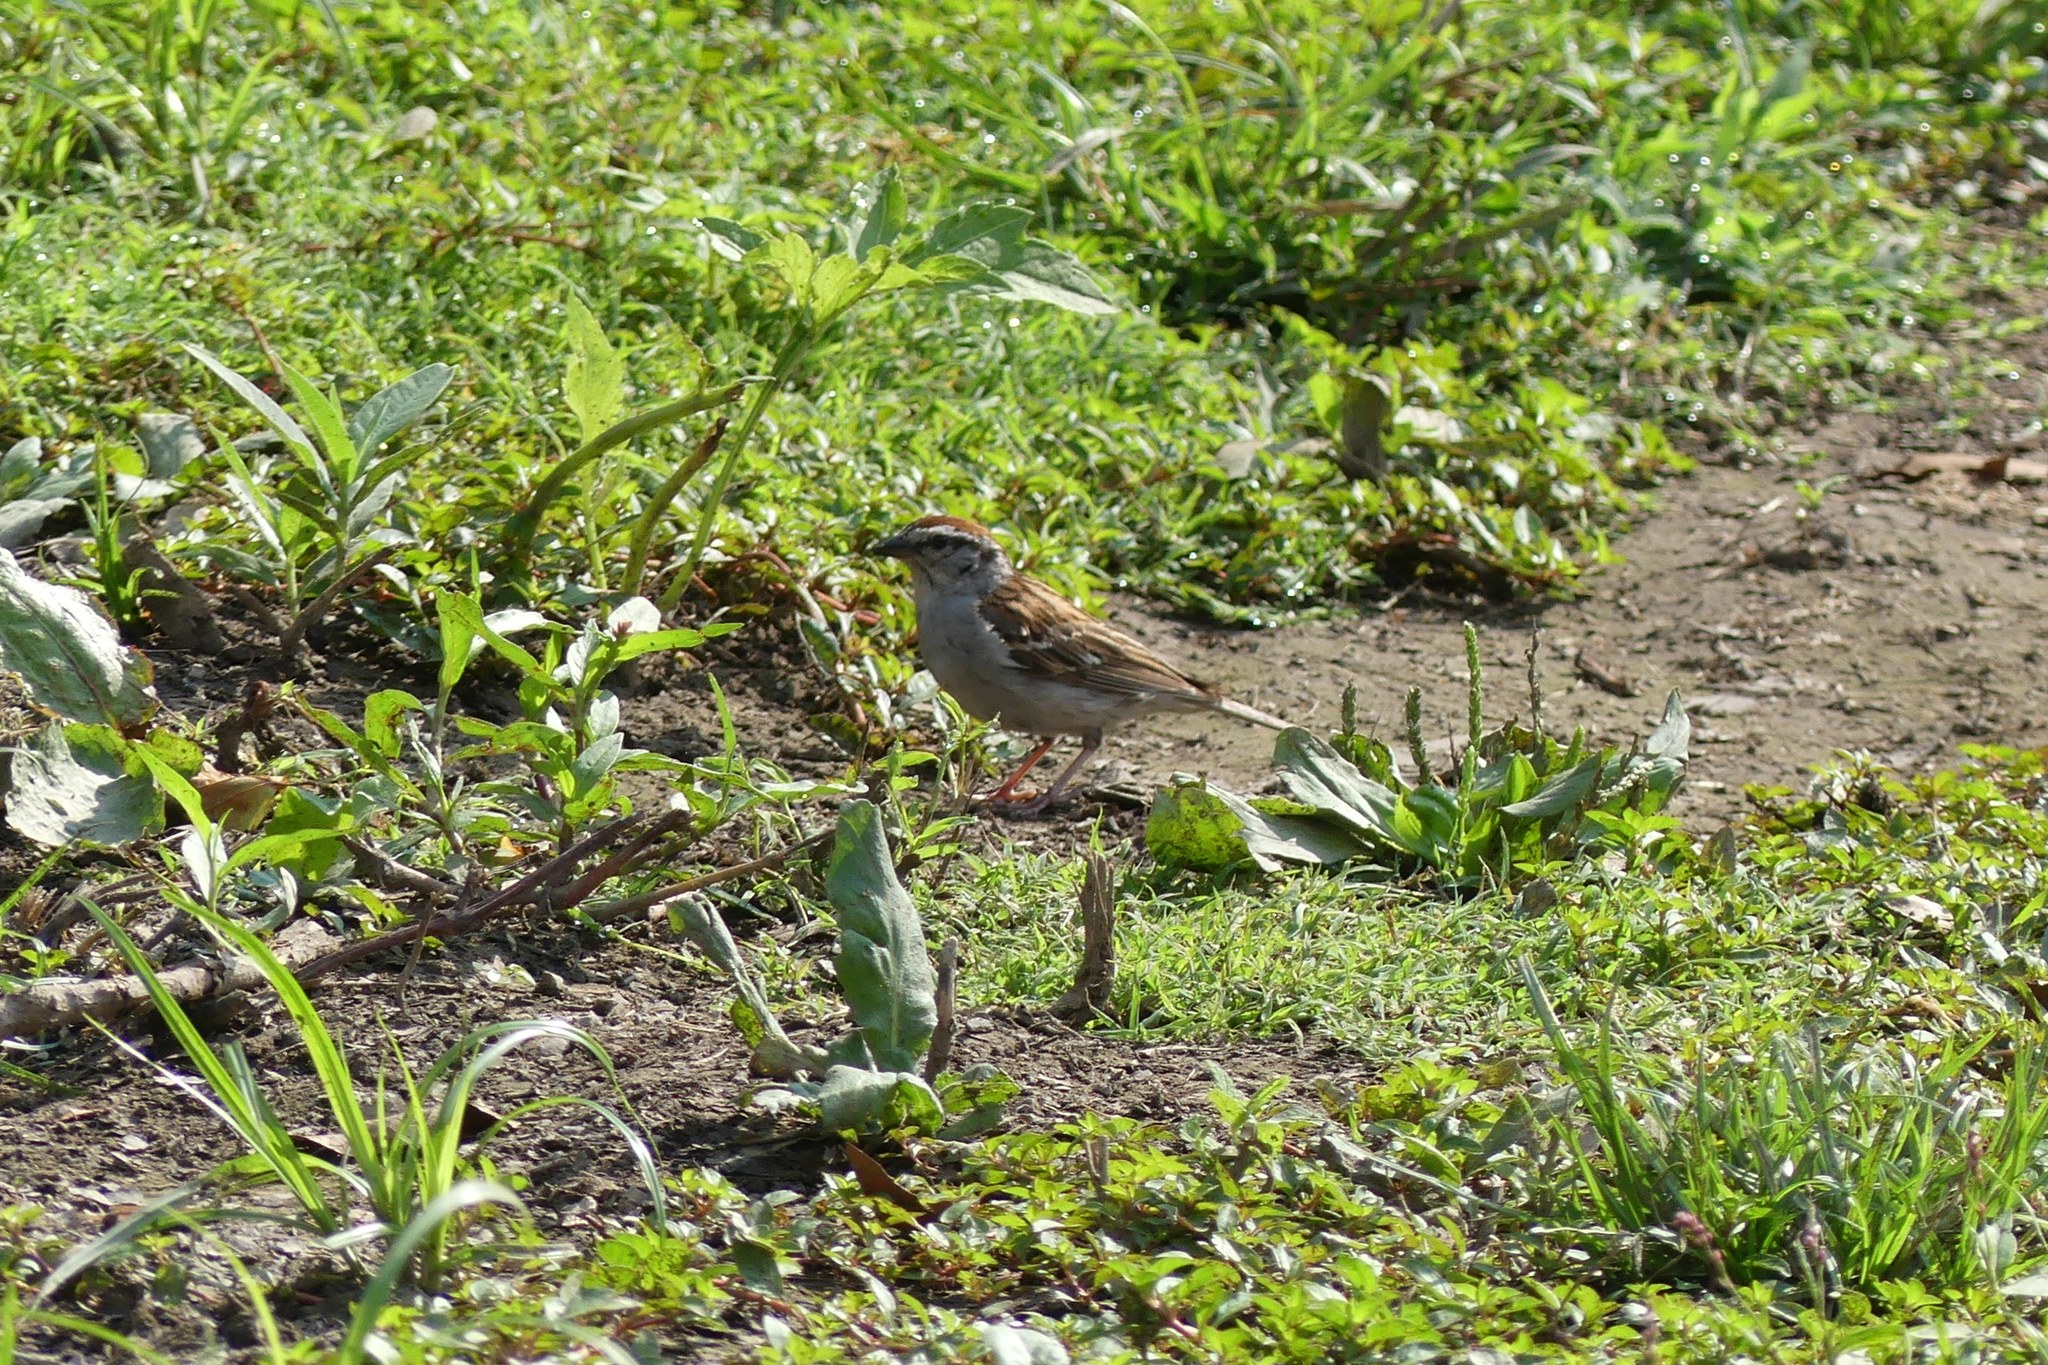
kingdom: Animalia
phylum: Chordata
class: Aves
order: Passeriformes
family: Passerellidae
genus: Spizella
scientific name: Spizella passerina
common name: Chipping sparrow
